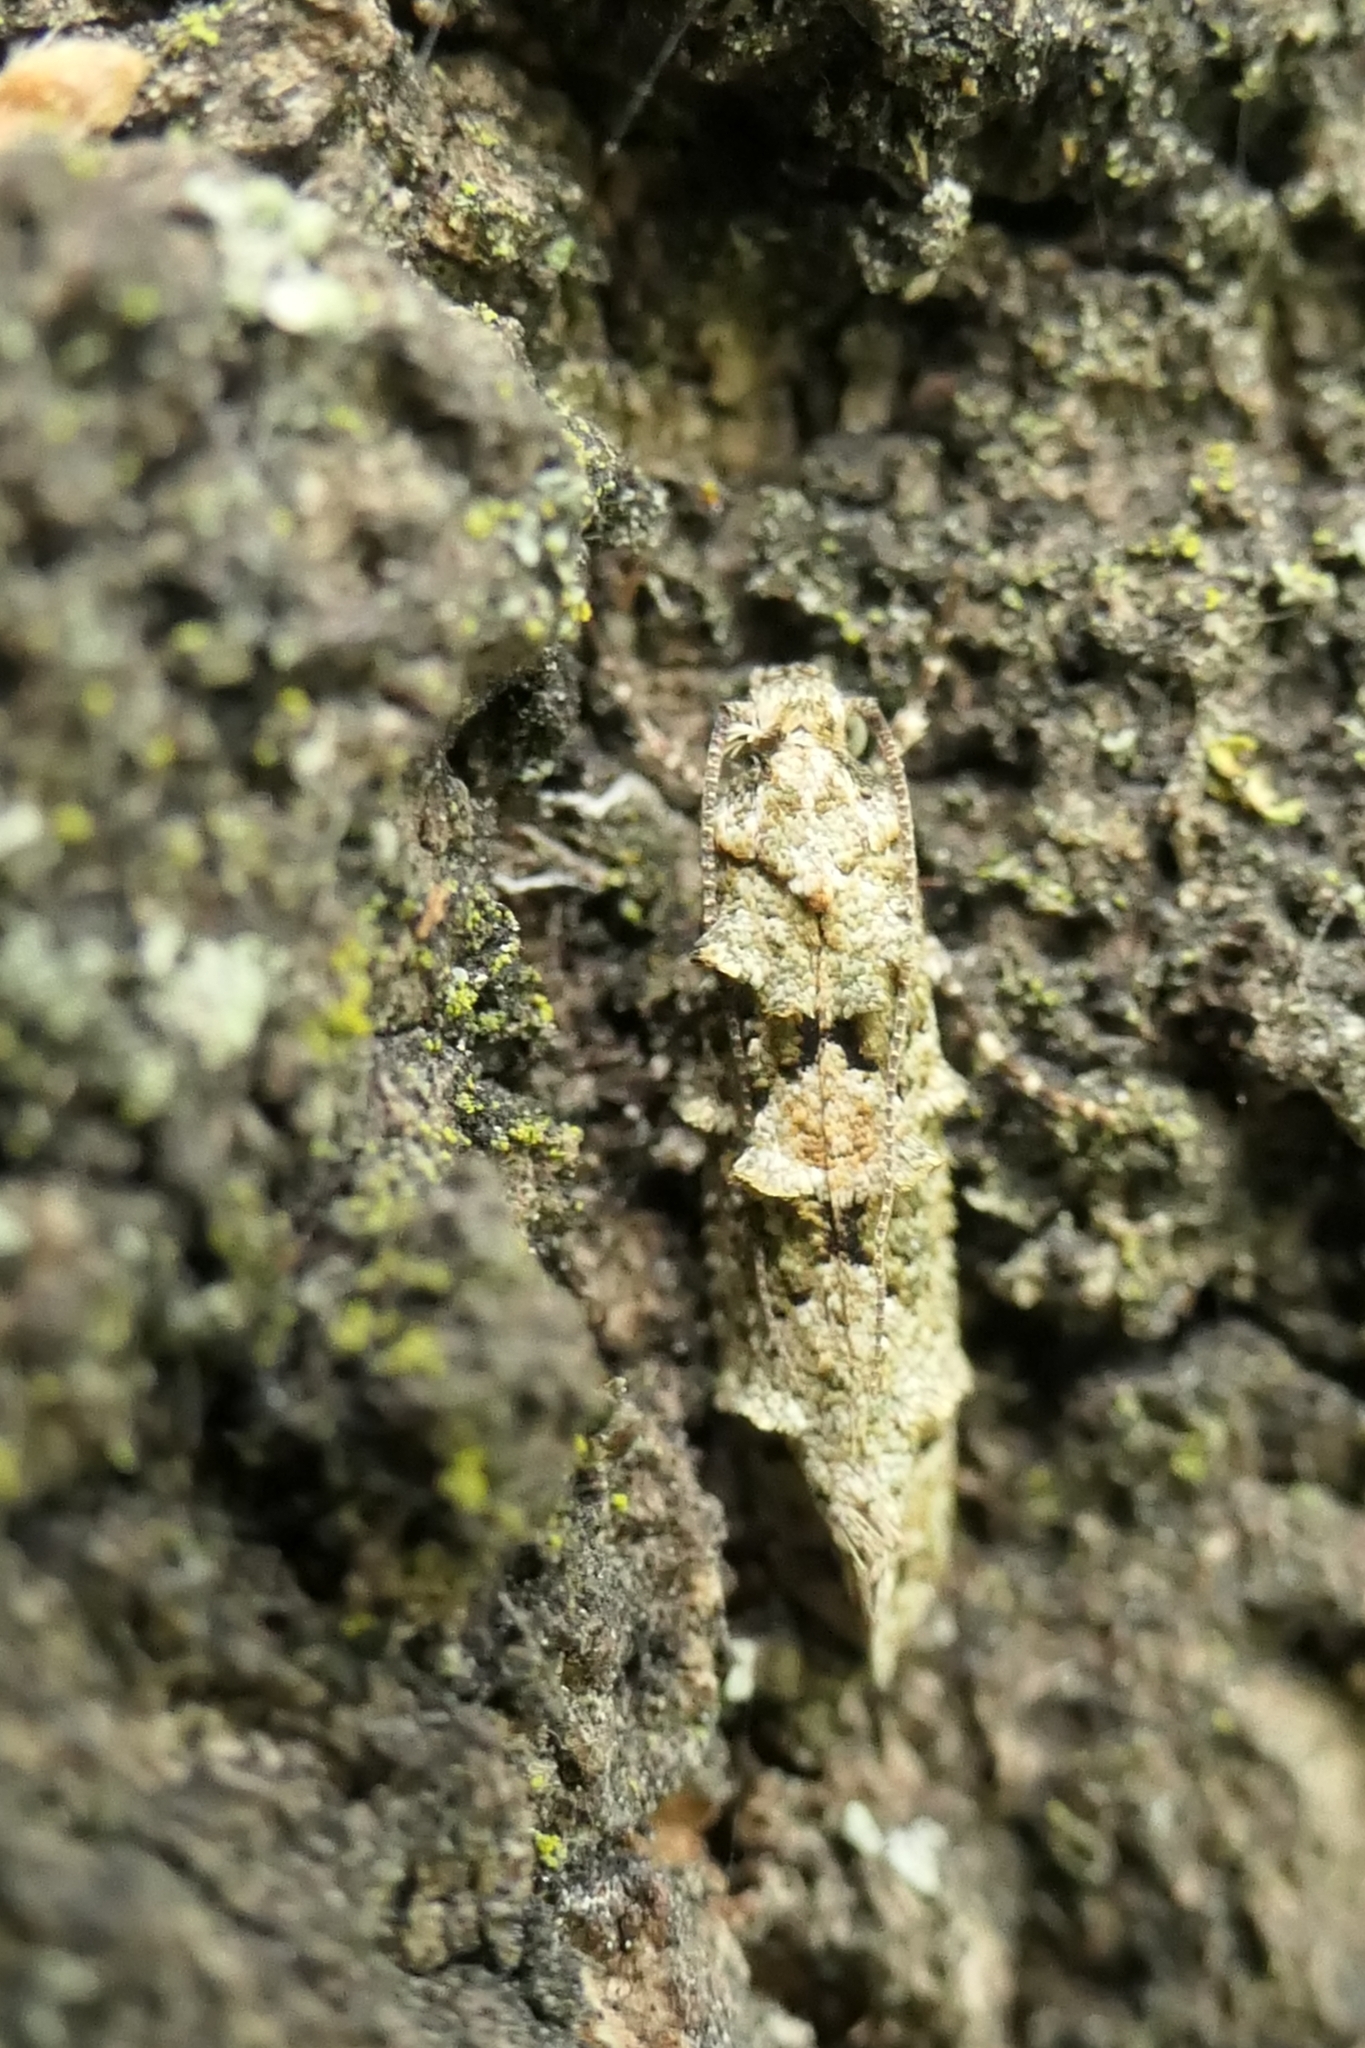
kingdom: Animalia
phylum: Arthropoda
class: Insecta
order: Lepidoptera
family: Tineidae
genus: Lysiphragma
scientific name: Lysiphragma howesii
